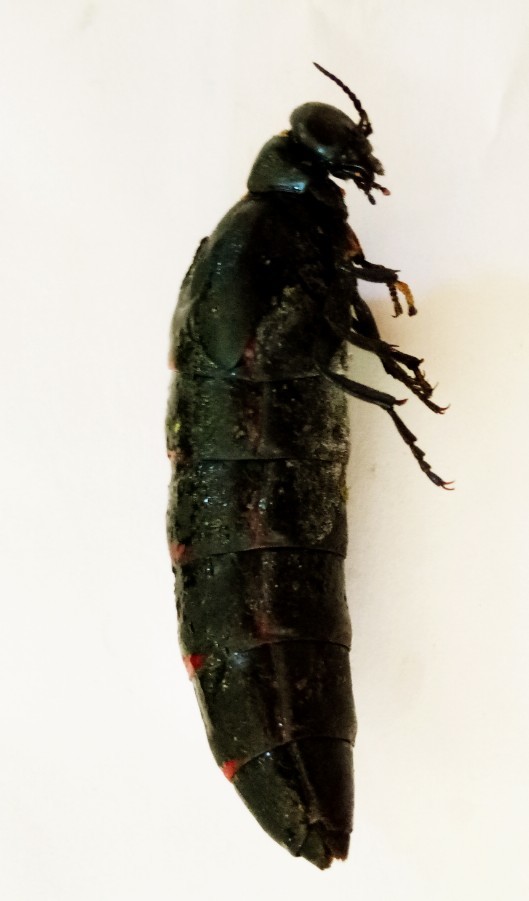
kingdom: Animalia
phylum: Arthropoda
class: Insecta
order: Coleoptera
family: Meloidae
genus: Berberomeloe
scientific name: Berberomeloe maculifrons
